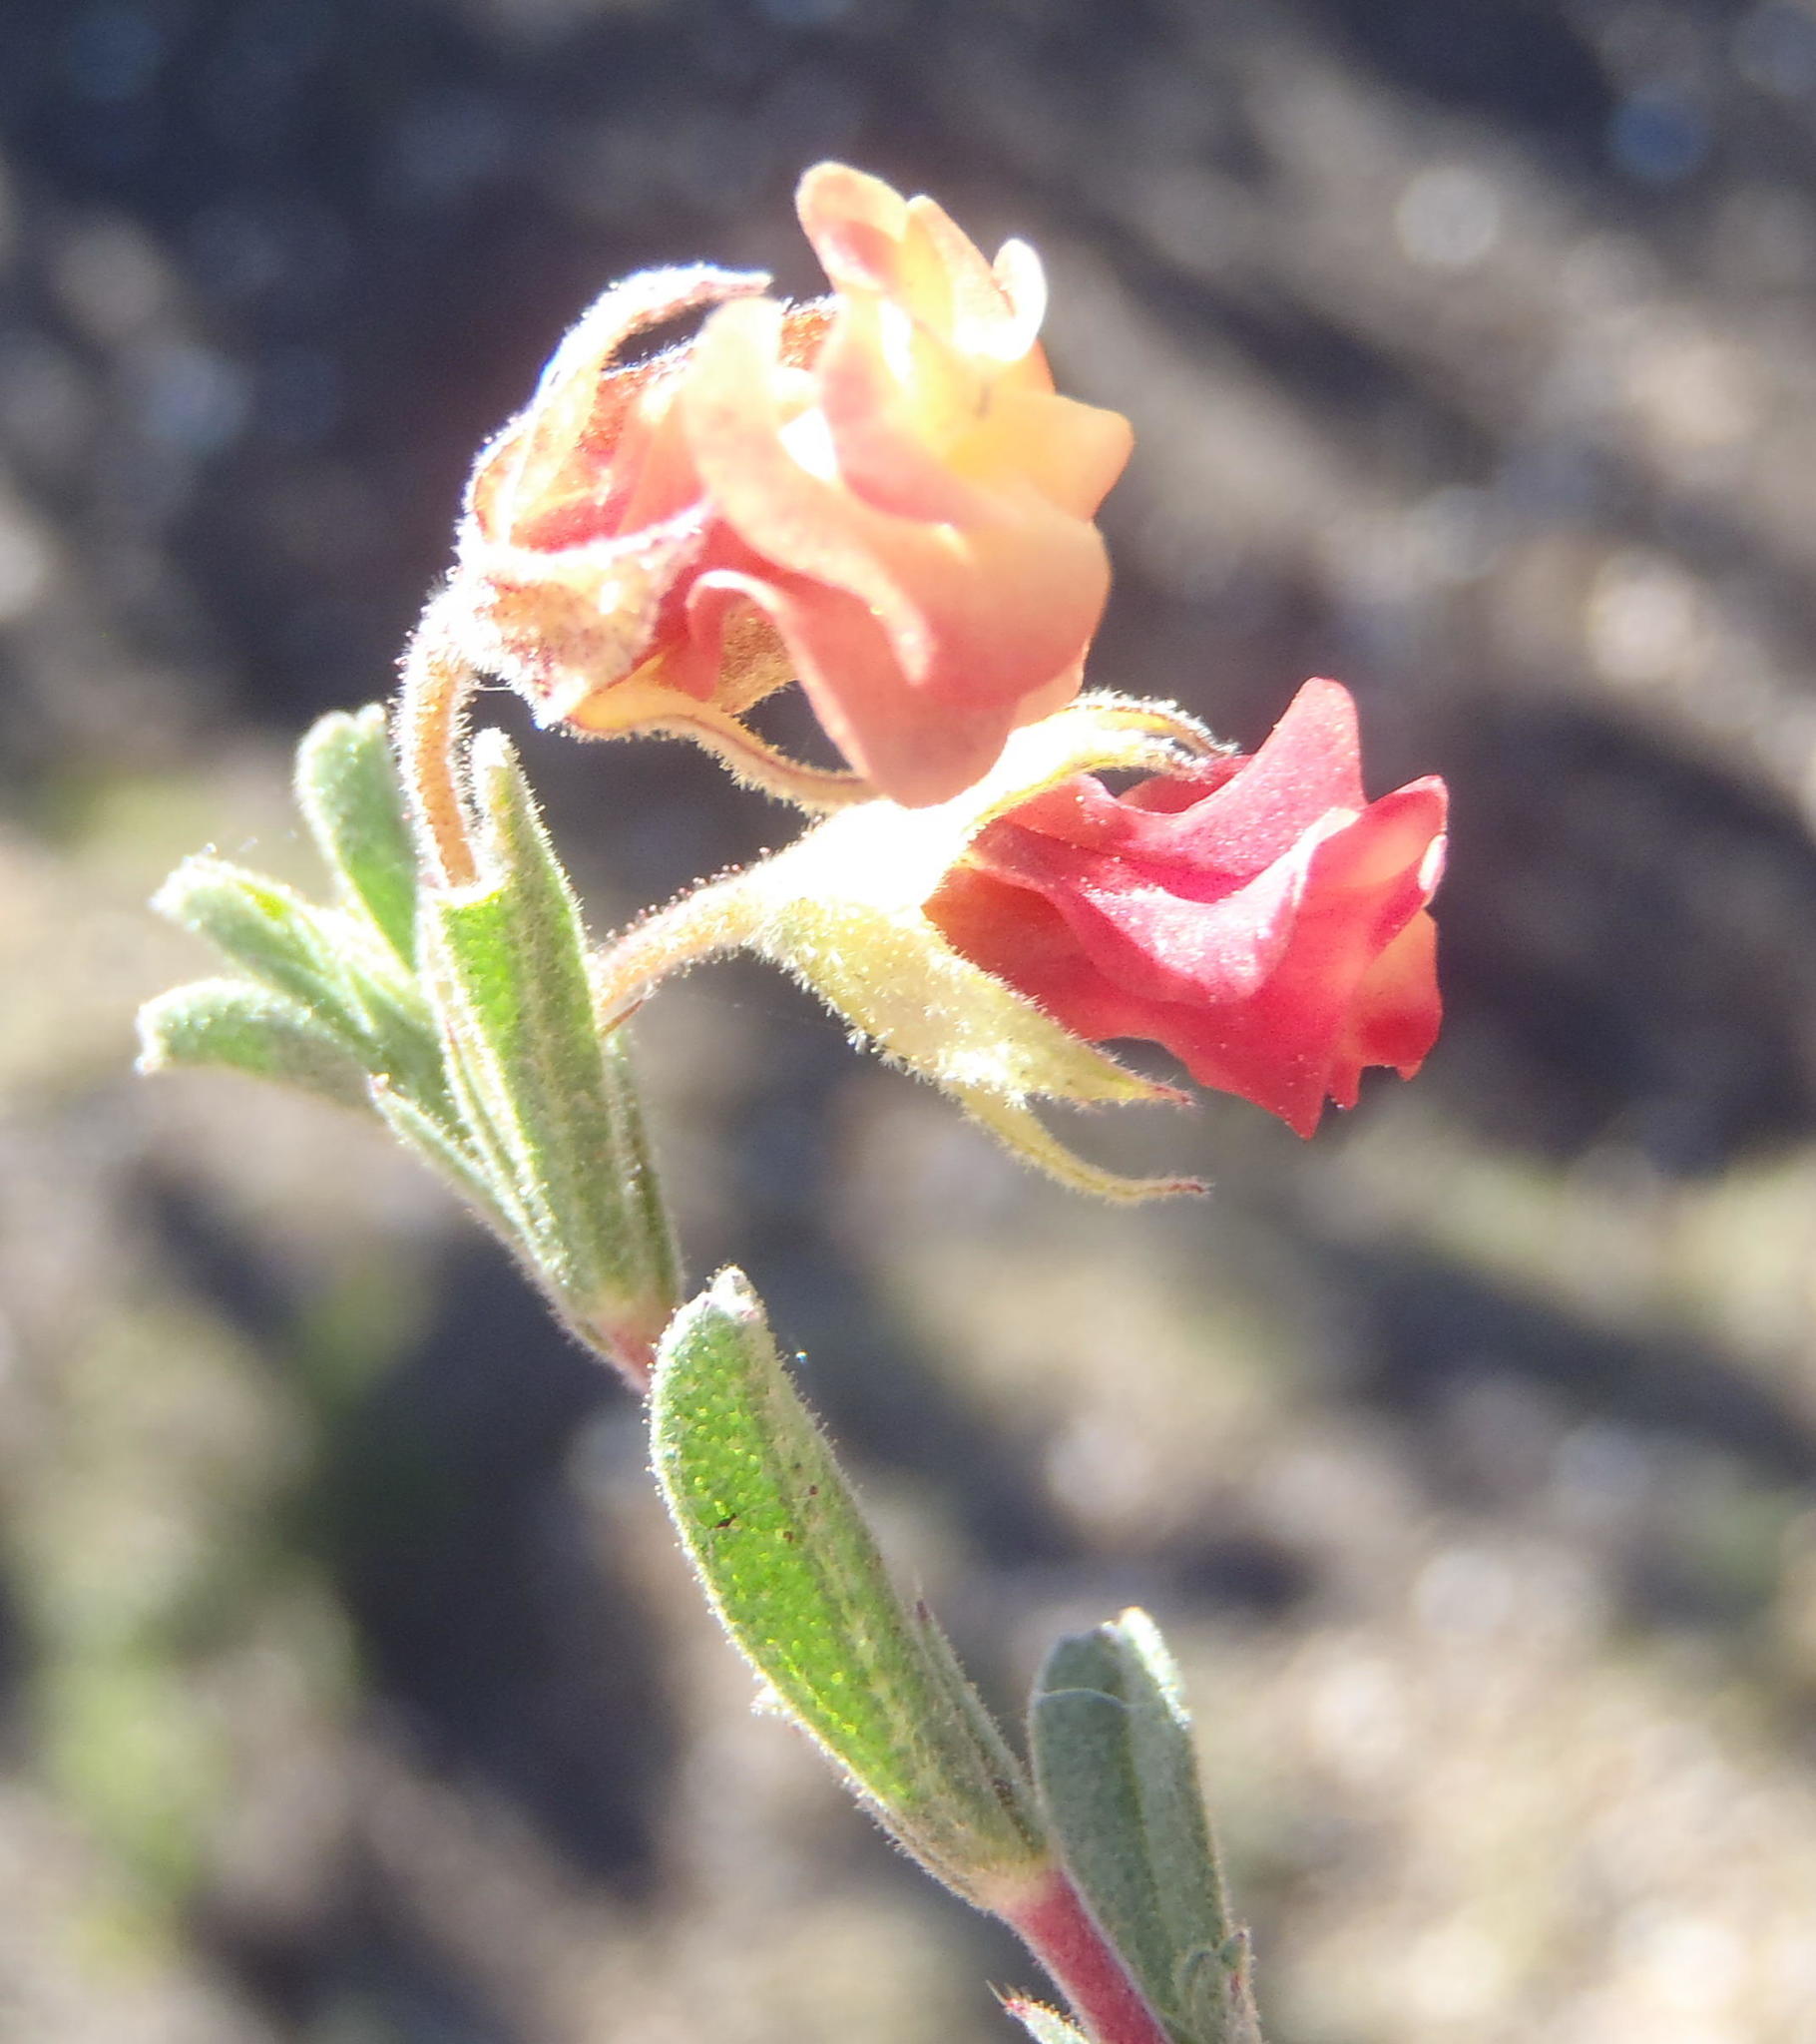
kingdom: Plantae
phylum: Tracheophyta
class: Magnoliopsida
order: Malvales
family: Malvaceae
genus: Hermannia
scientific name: Hermannia flammula
